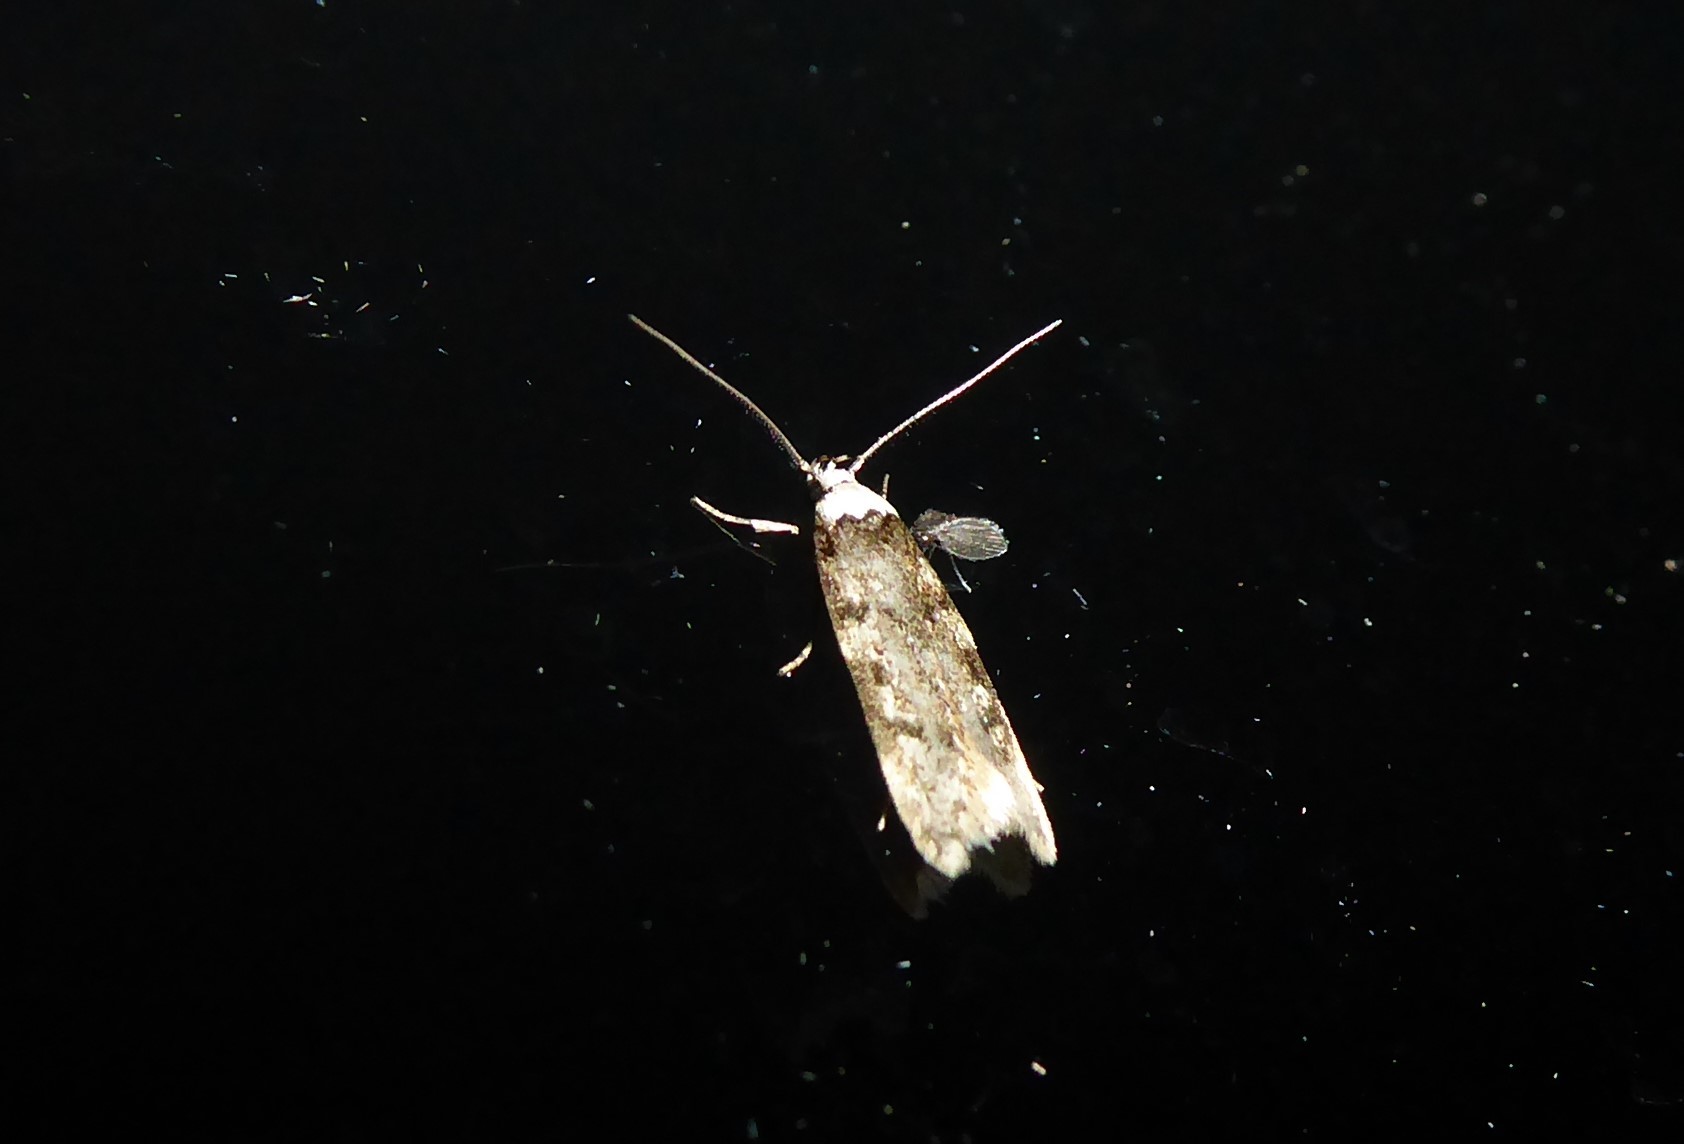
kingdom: Animalia
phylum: Arthropoda
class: Insecta
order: Lepidoptera
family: Oecophoridae
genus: Endrosis
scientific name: Endrosis sarcitrella
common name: White-shouldered house moth
